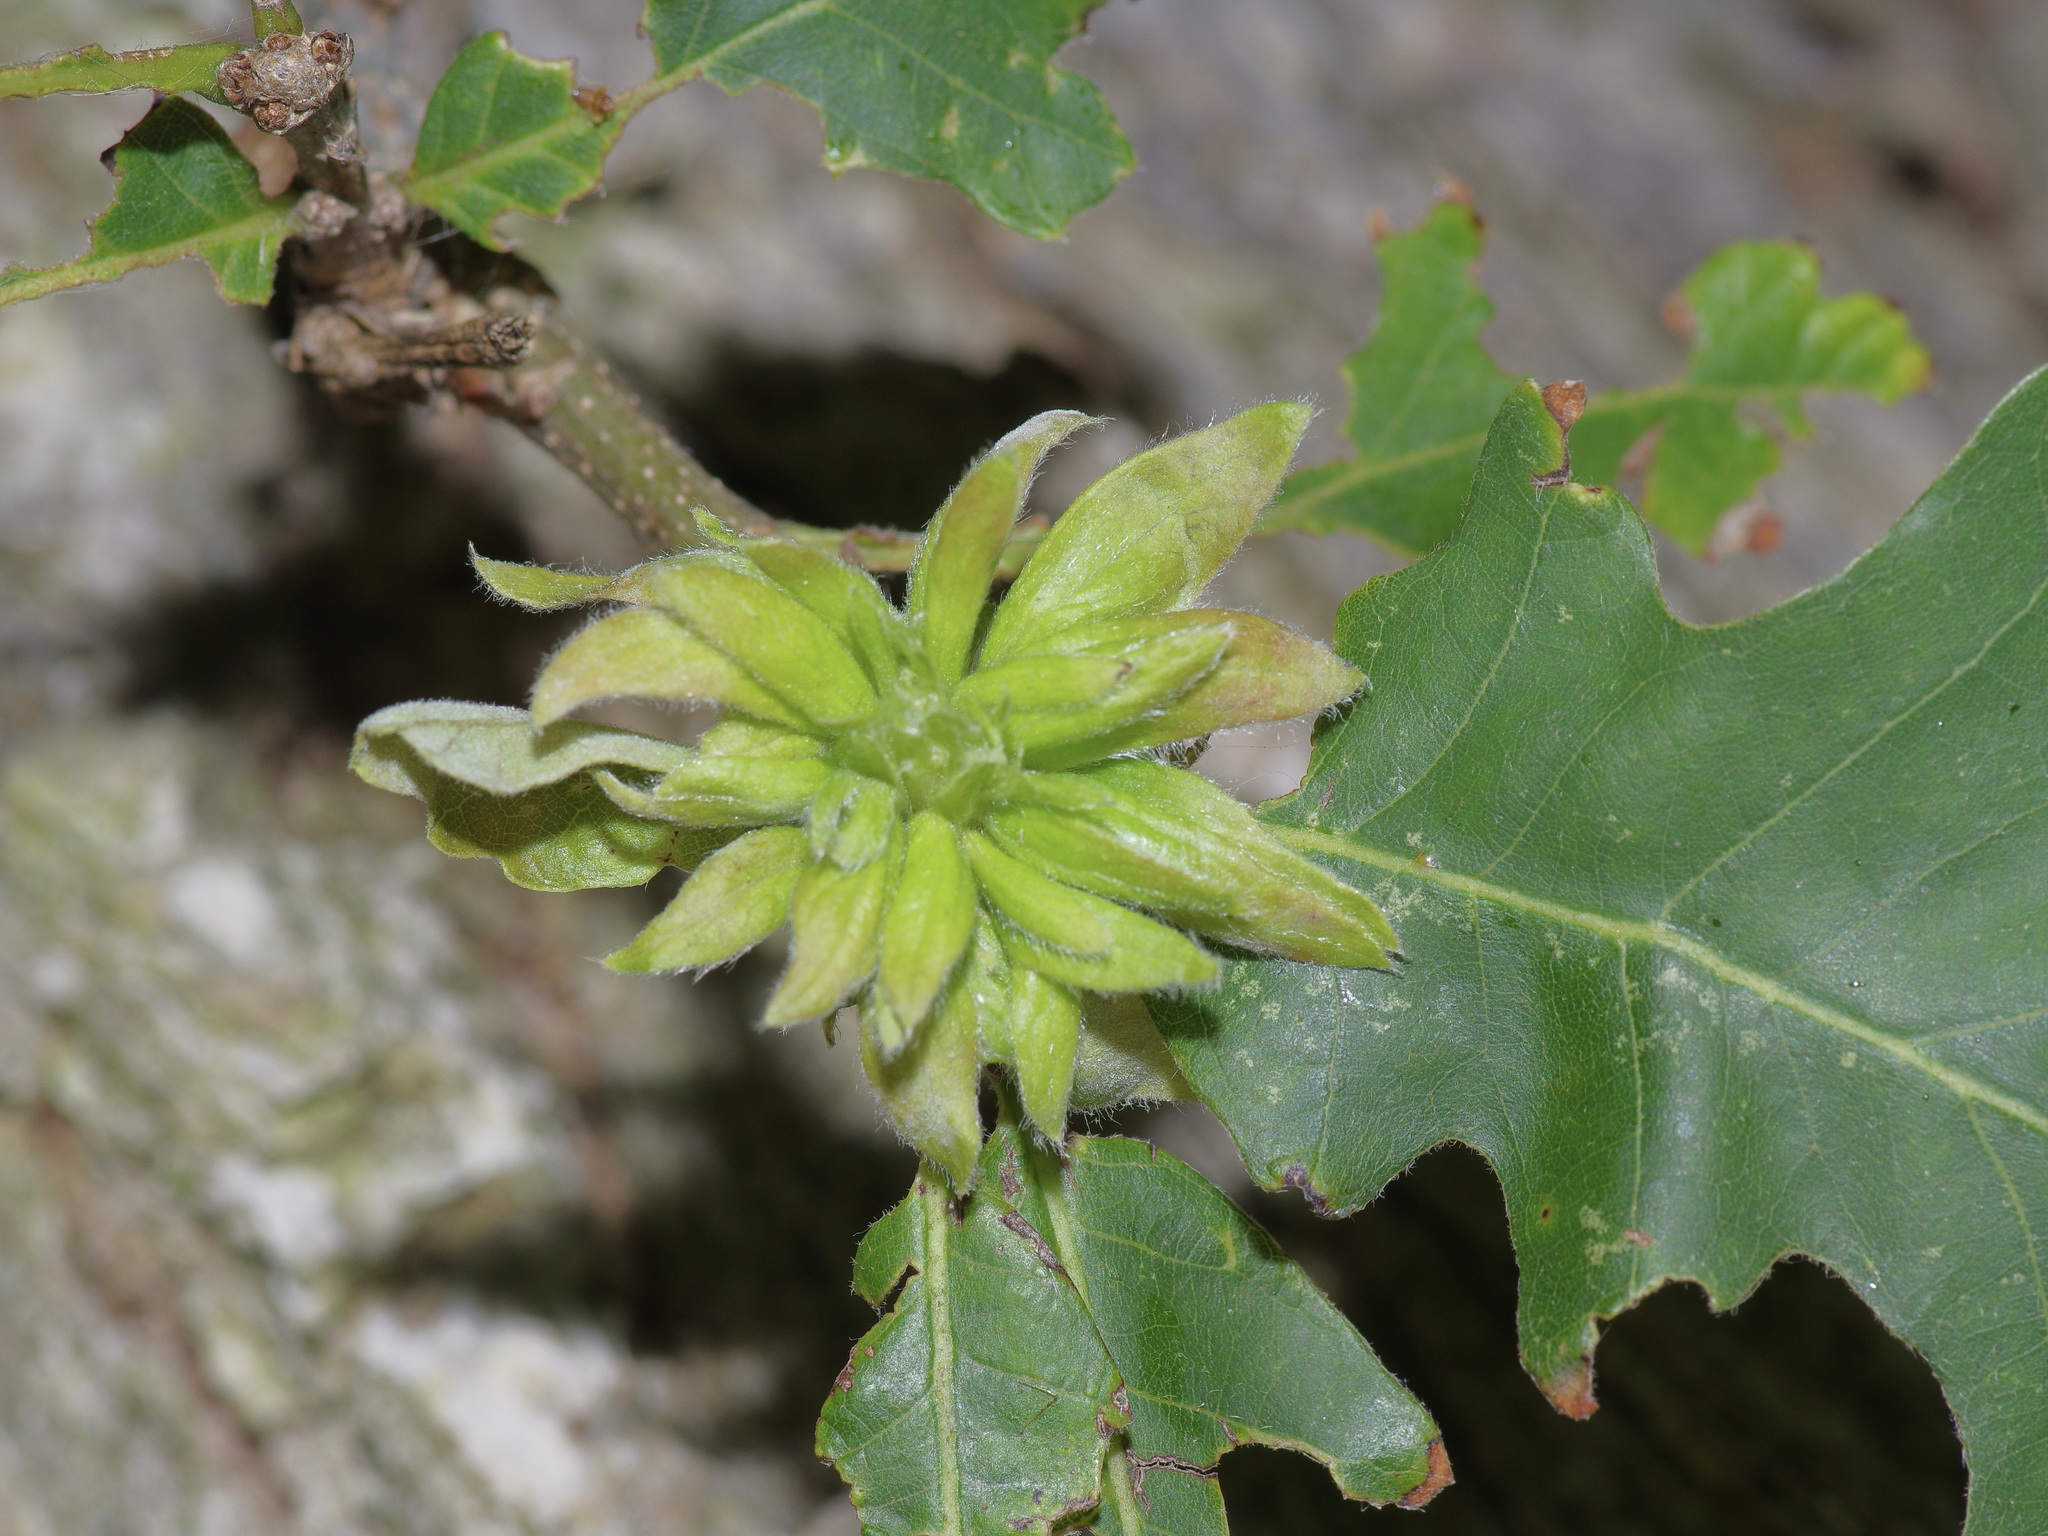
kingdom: Animalia
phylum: Arthropoda
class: Insecta
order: Hymenoptera
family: Cynipidae
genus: Andricus
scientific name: Andricus
